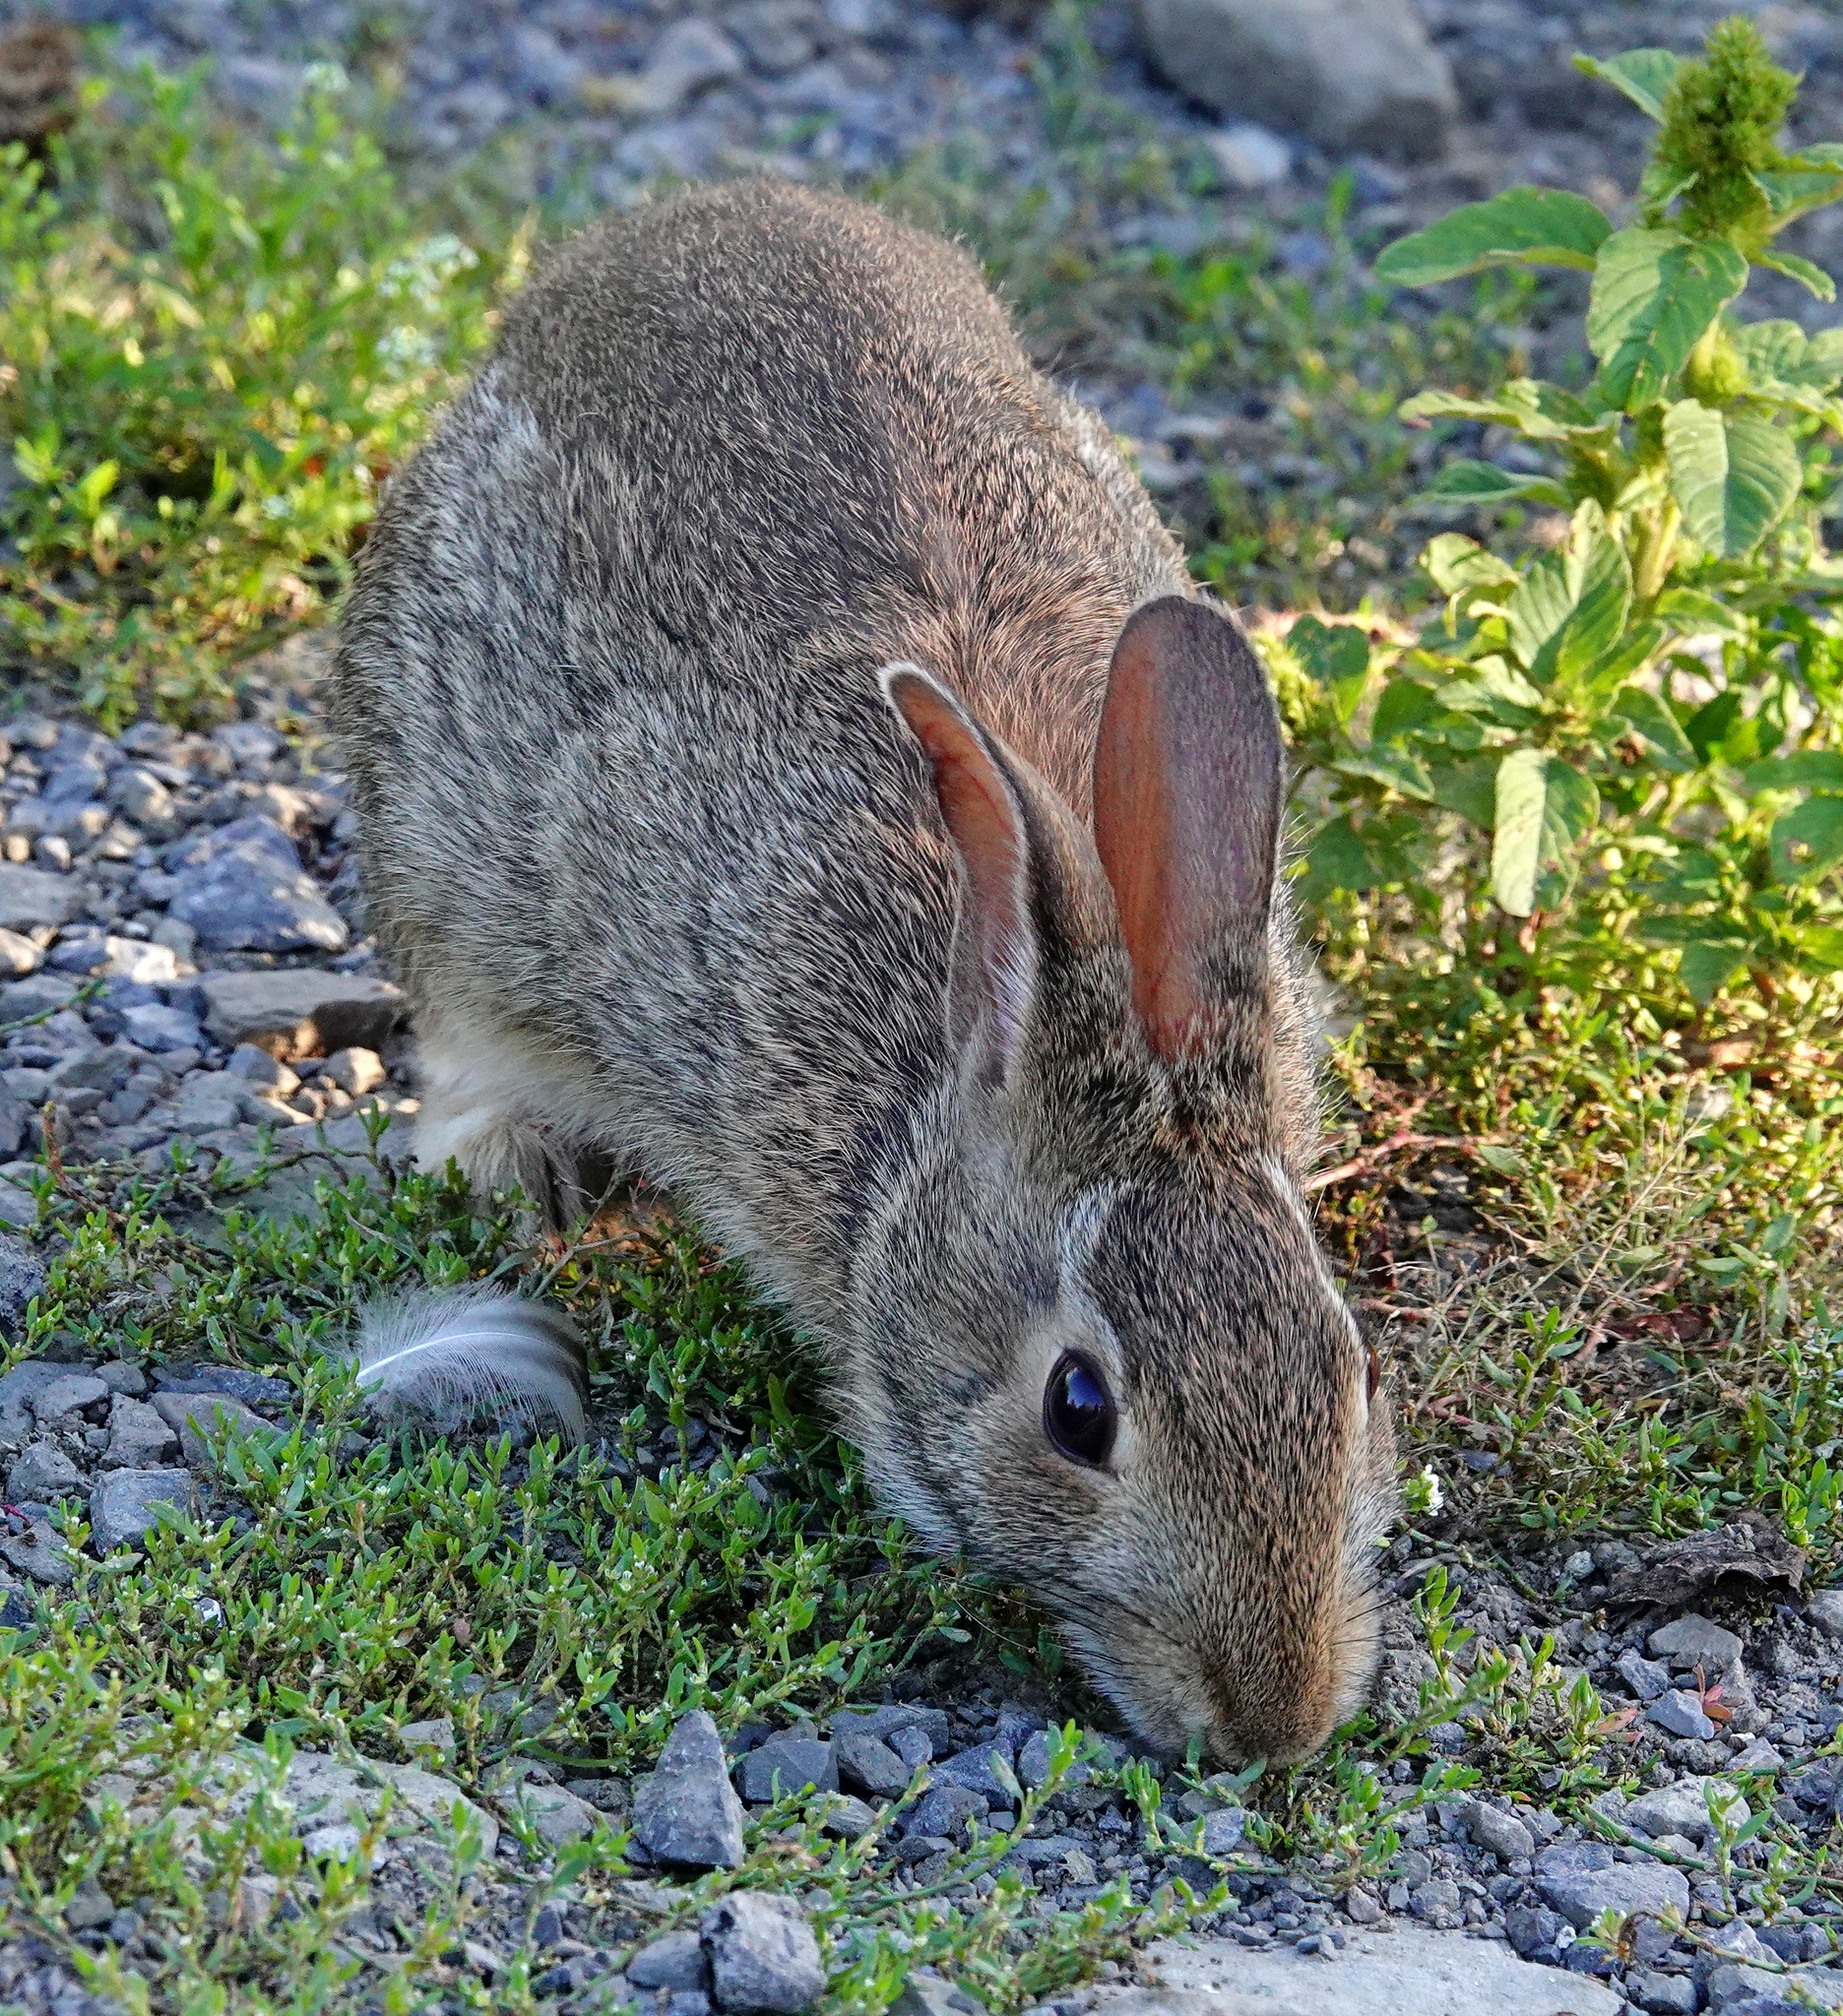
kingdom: Animalia
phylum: Chordata
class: Mammalia
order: Lagomorpha
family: Leporidae
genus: Sylvilagus
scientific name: Sylvilagus floridanus
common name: Eastern cottontail
